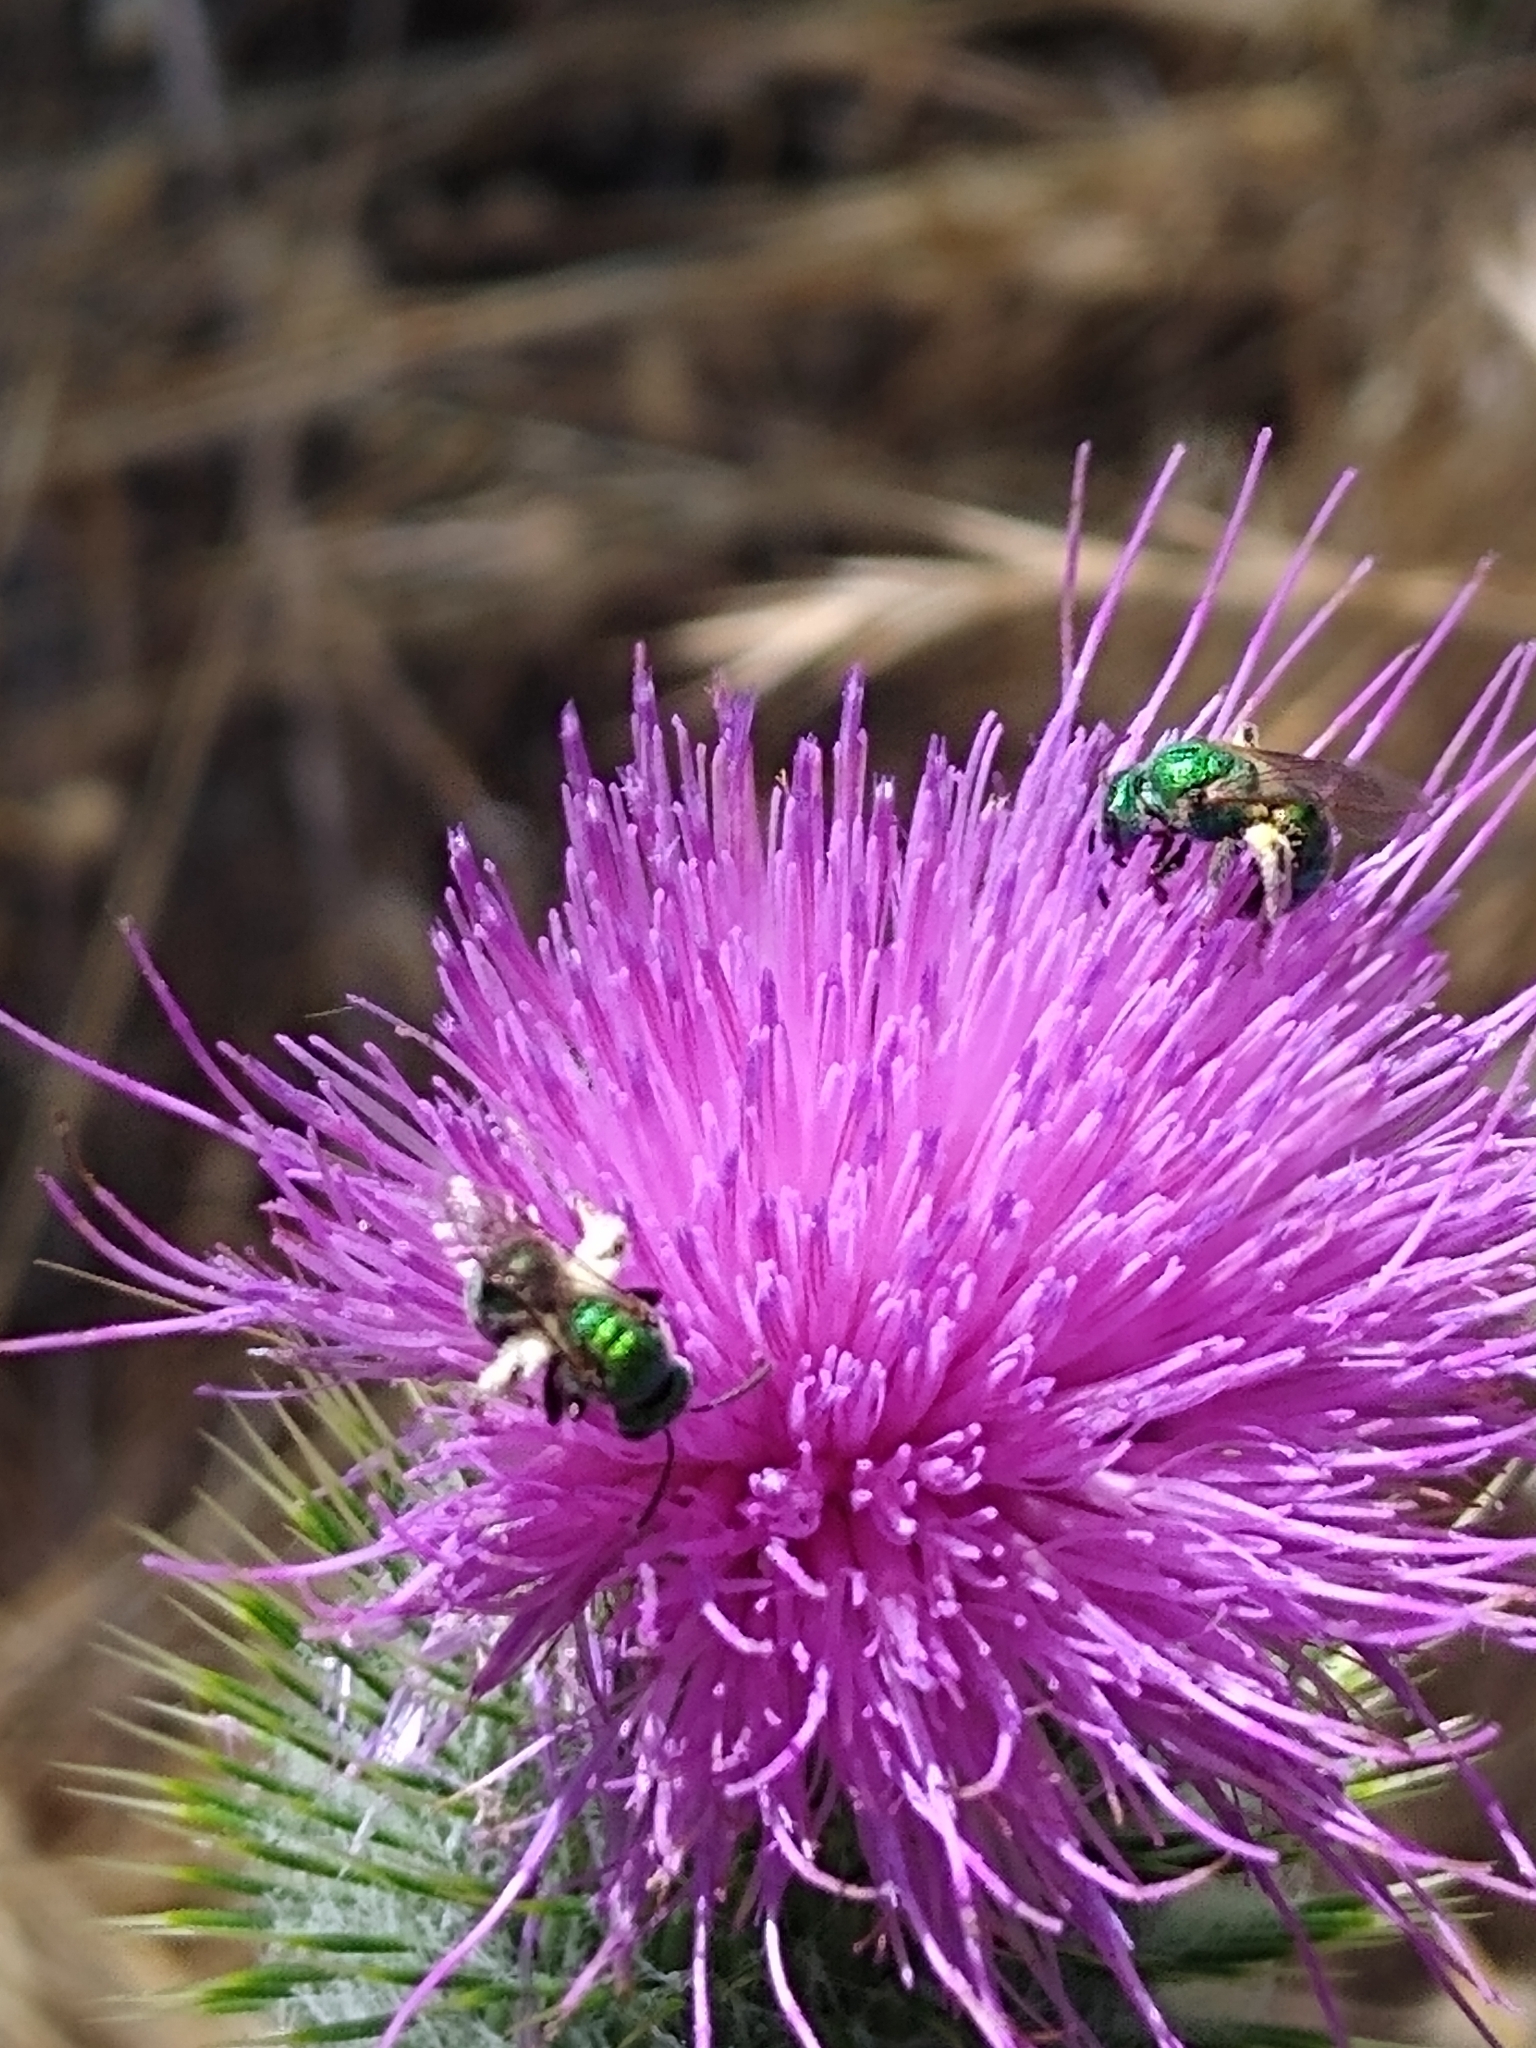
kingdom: Animalia
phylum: Arthropoda
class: Insecta
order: Hymenoptera
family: Halictidae
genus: Augochlorella
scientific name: Augochlorella pomoniella
